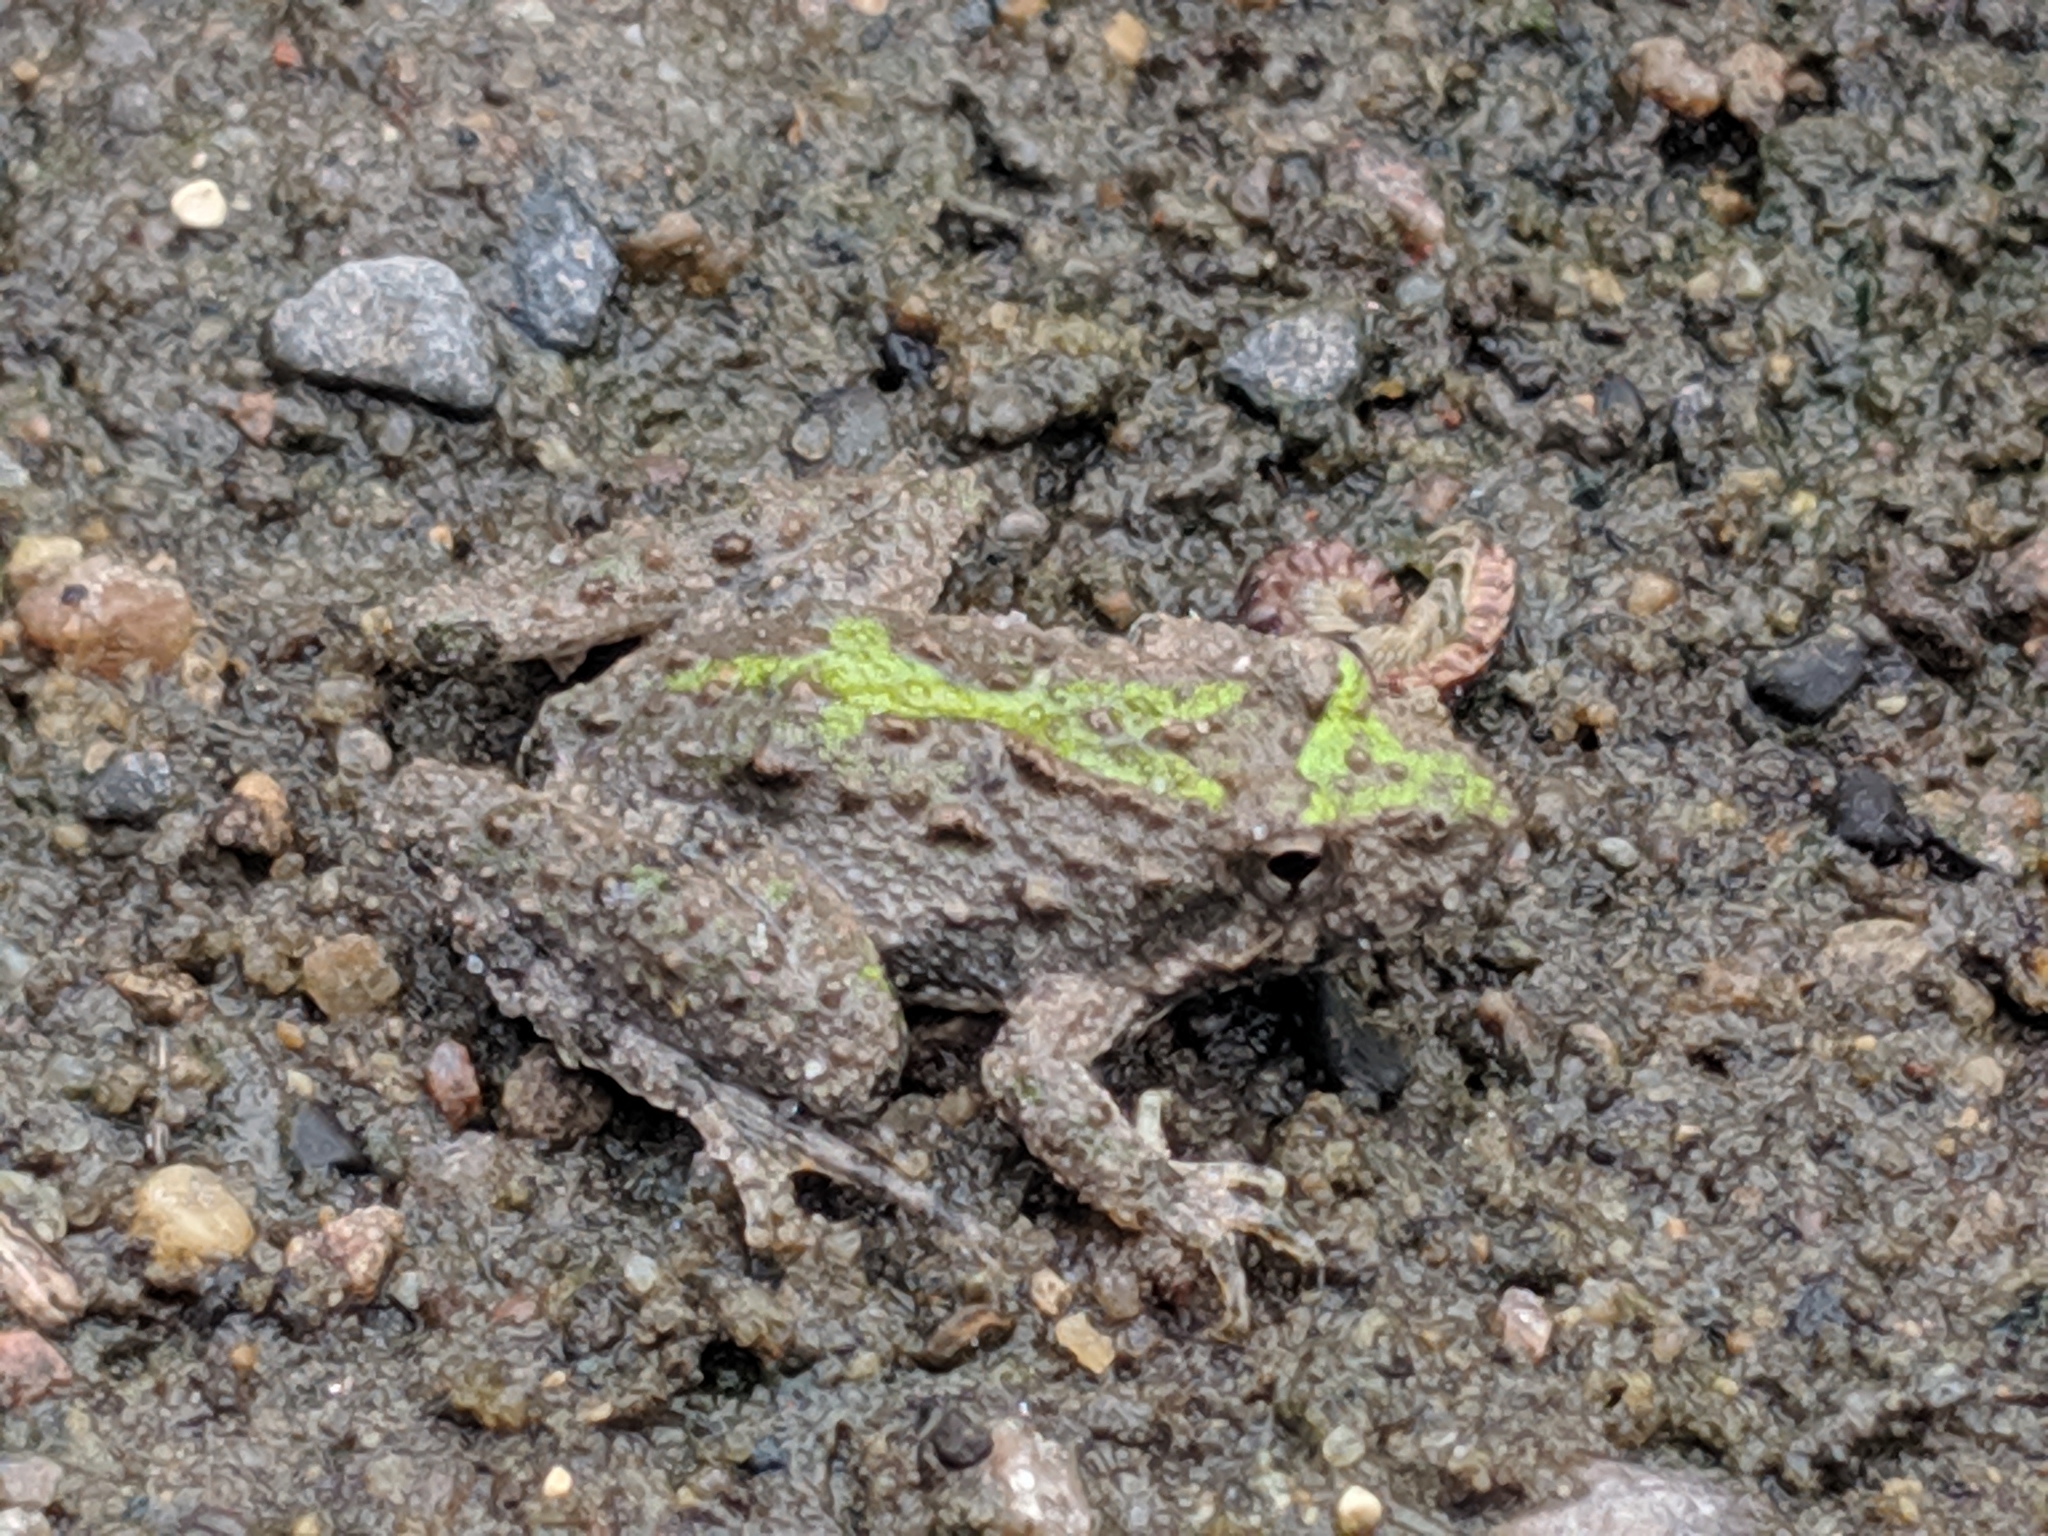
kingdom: Animalia
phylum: Chordata
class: Amphibia
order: Anura
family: Hylidae
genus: Acris
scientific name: Acris blanchardi
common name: Blanchard's cricket frog
